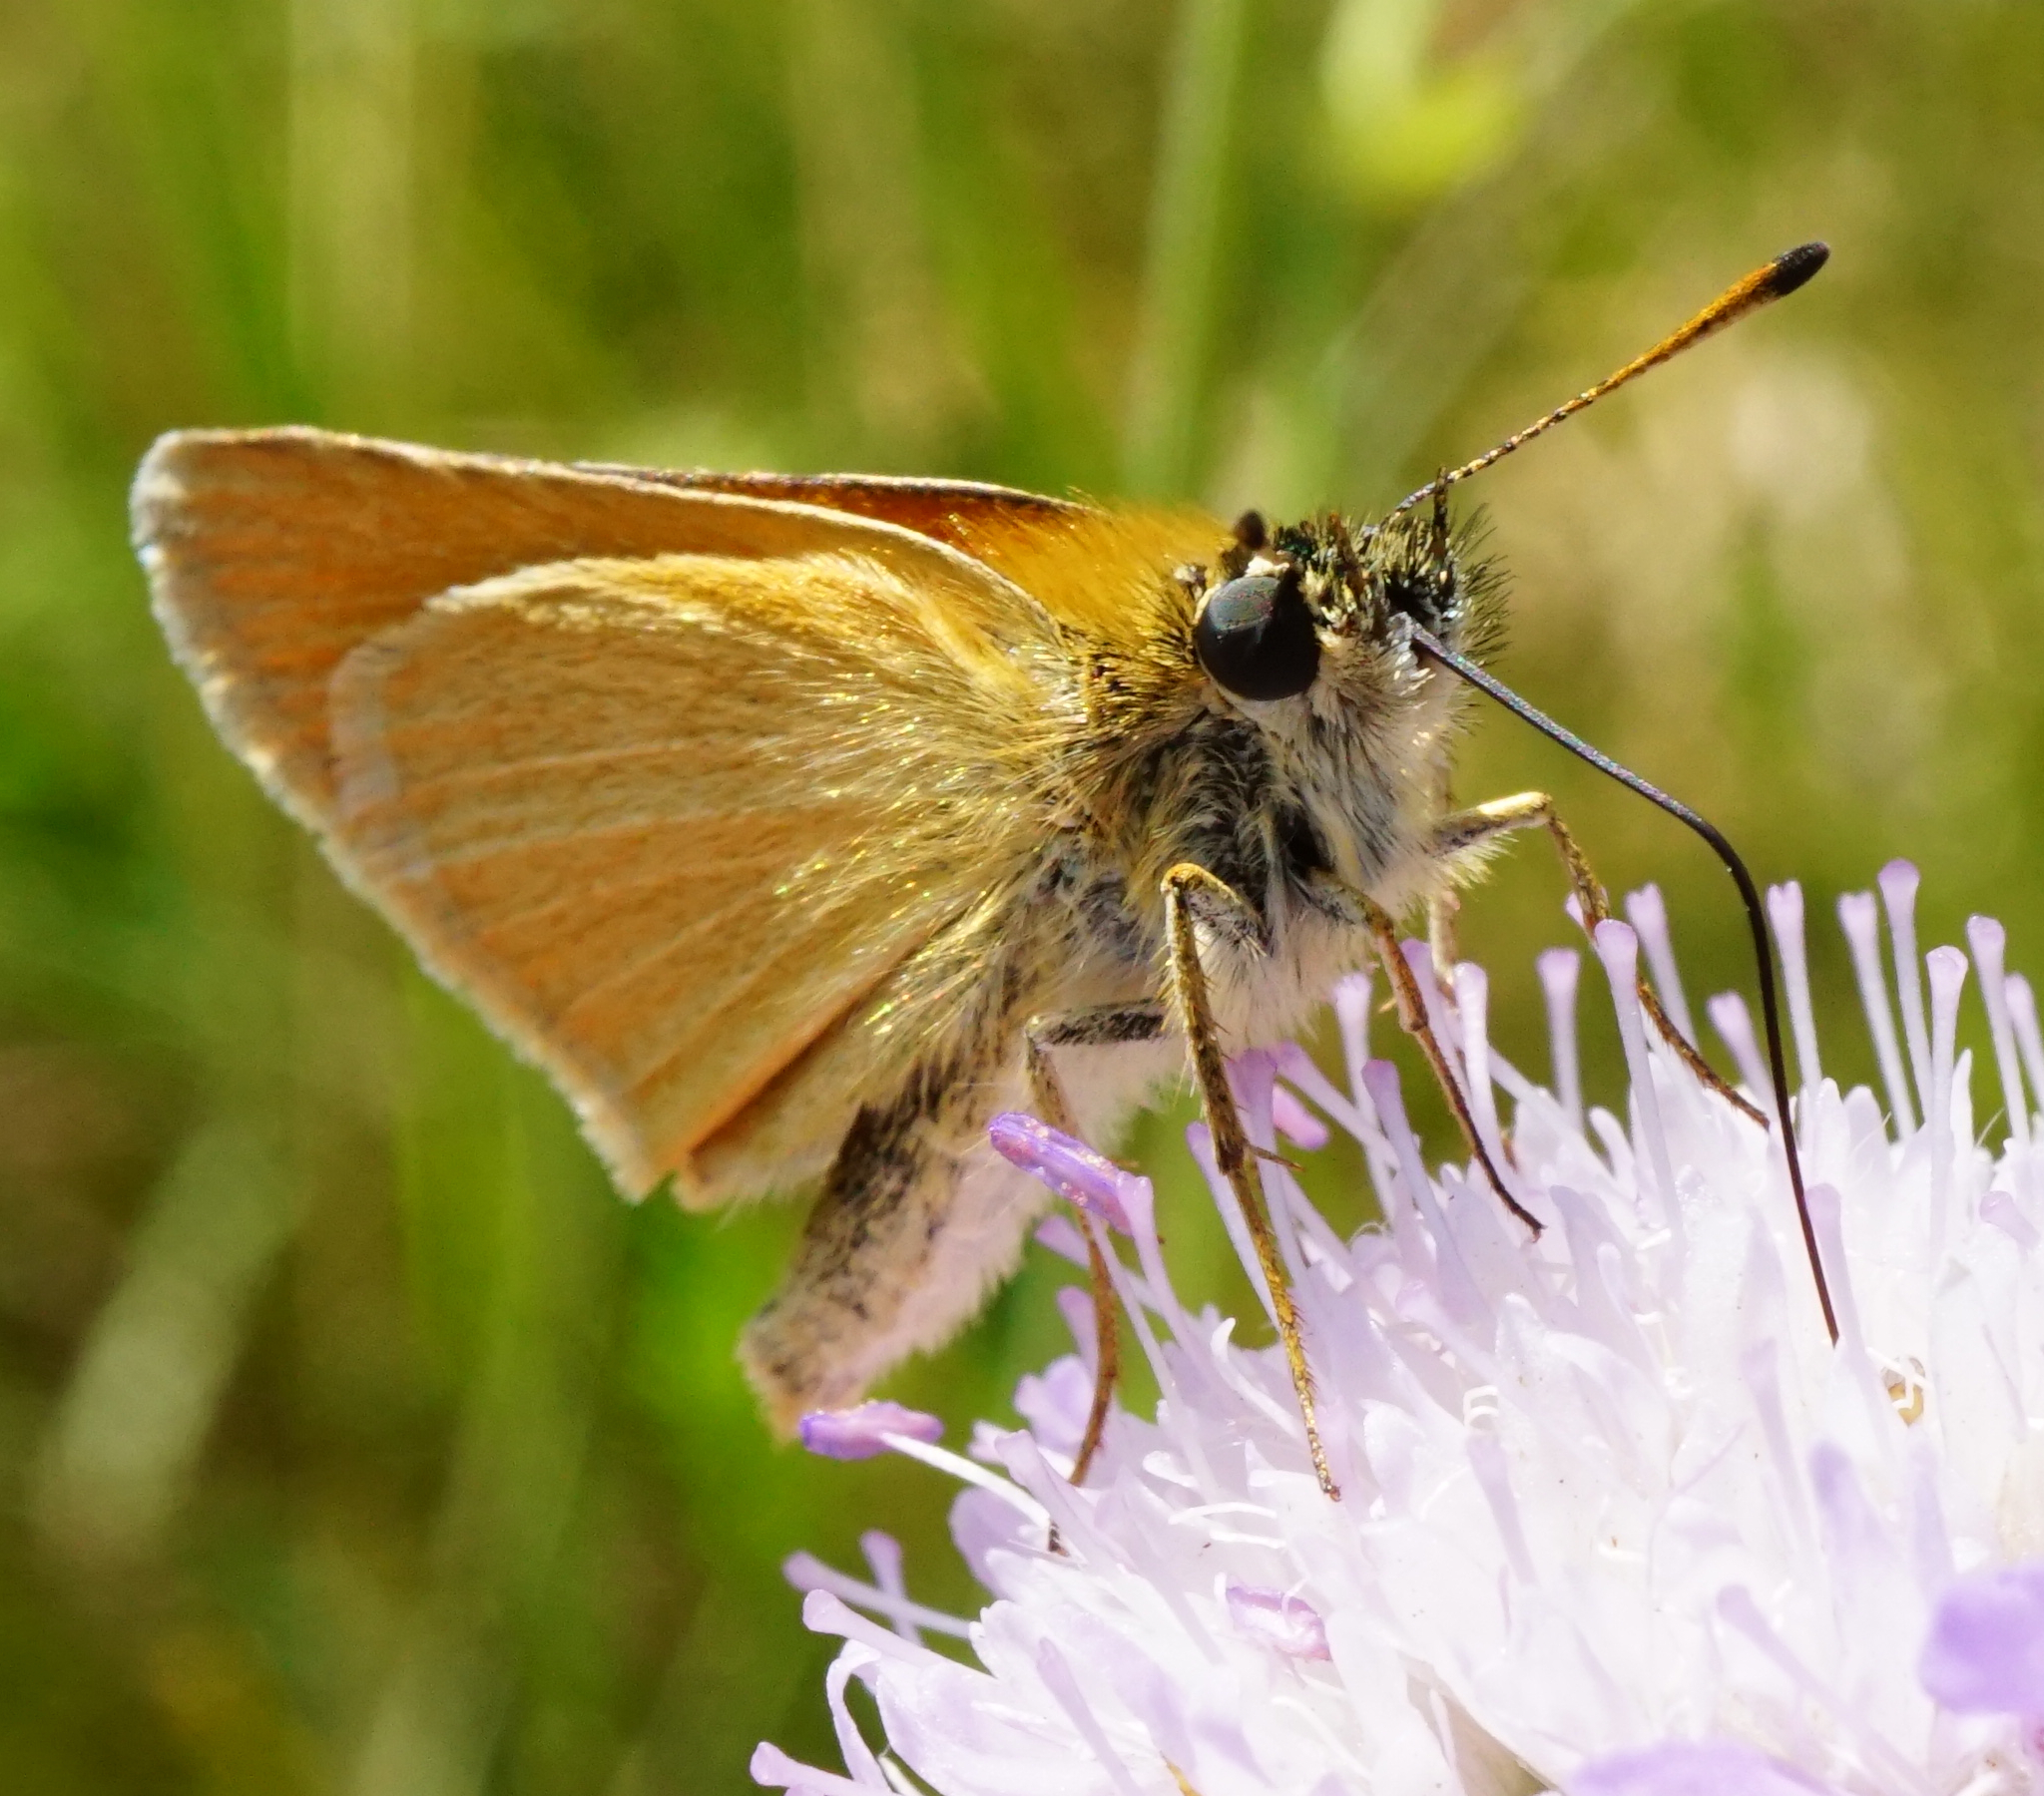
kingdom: Animalia
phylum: Arthropoda
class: Insecta
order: Lepidoptera
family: Hesperiidae
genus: Thymelicus
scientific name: Thymelicus lineola
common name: Essex skipper
